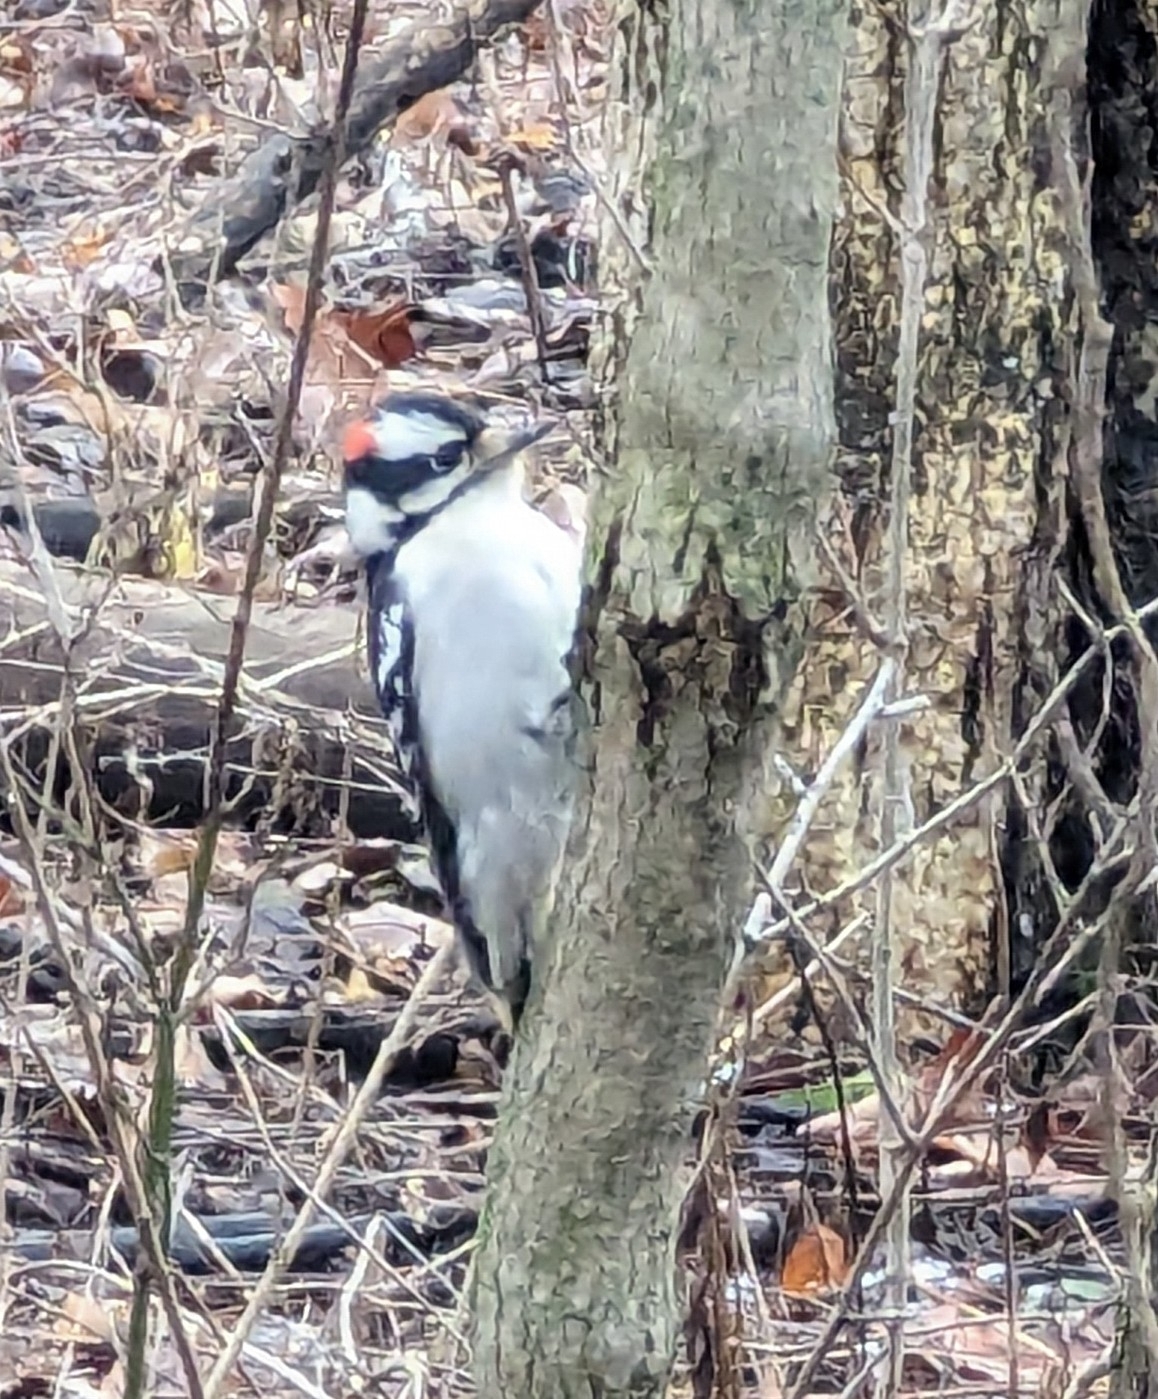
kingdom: Animalia
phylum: Chordata
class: Aves
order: Piciformes
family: Picidae
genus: Dryobates
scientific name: Dryobates pubescens
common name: Downy woodpecker
